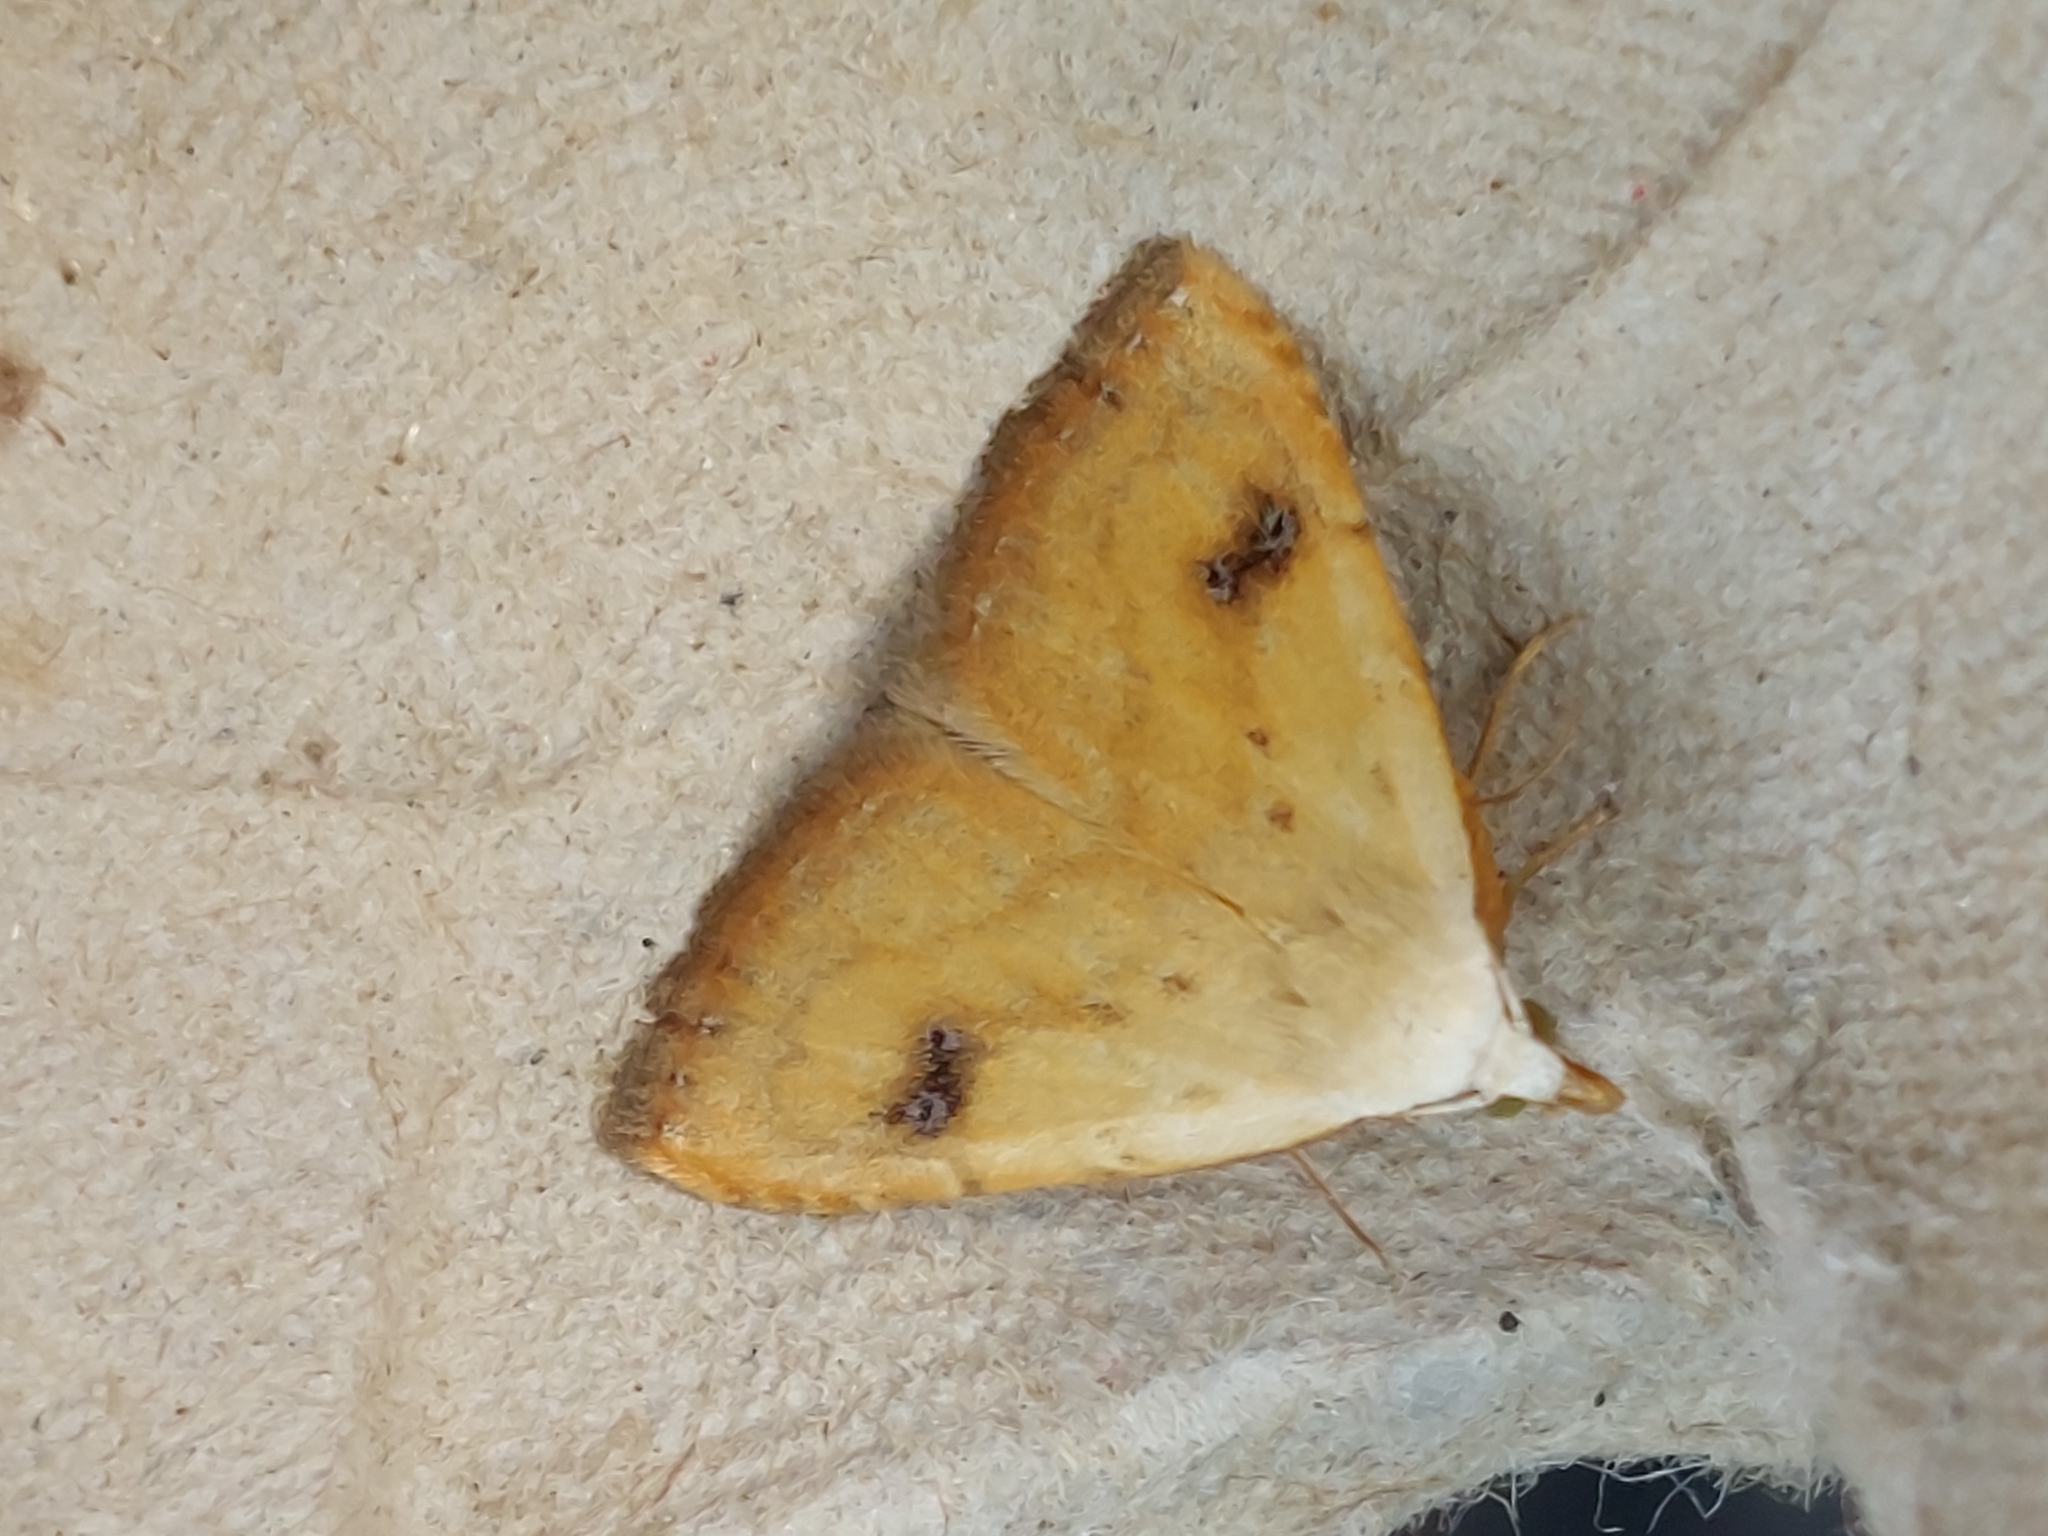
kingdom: Animalia
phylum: Arthropoda
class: Insecta
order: Lepidoptera
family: Erebidae
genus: Rivula
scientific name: Rivula sericealis
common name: Straw dot
